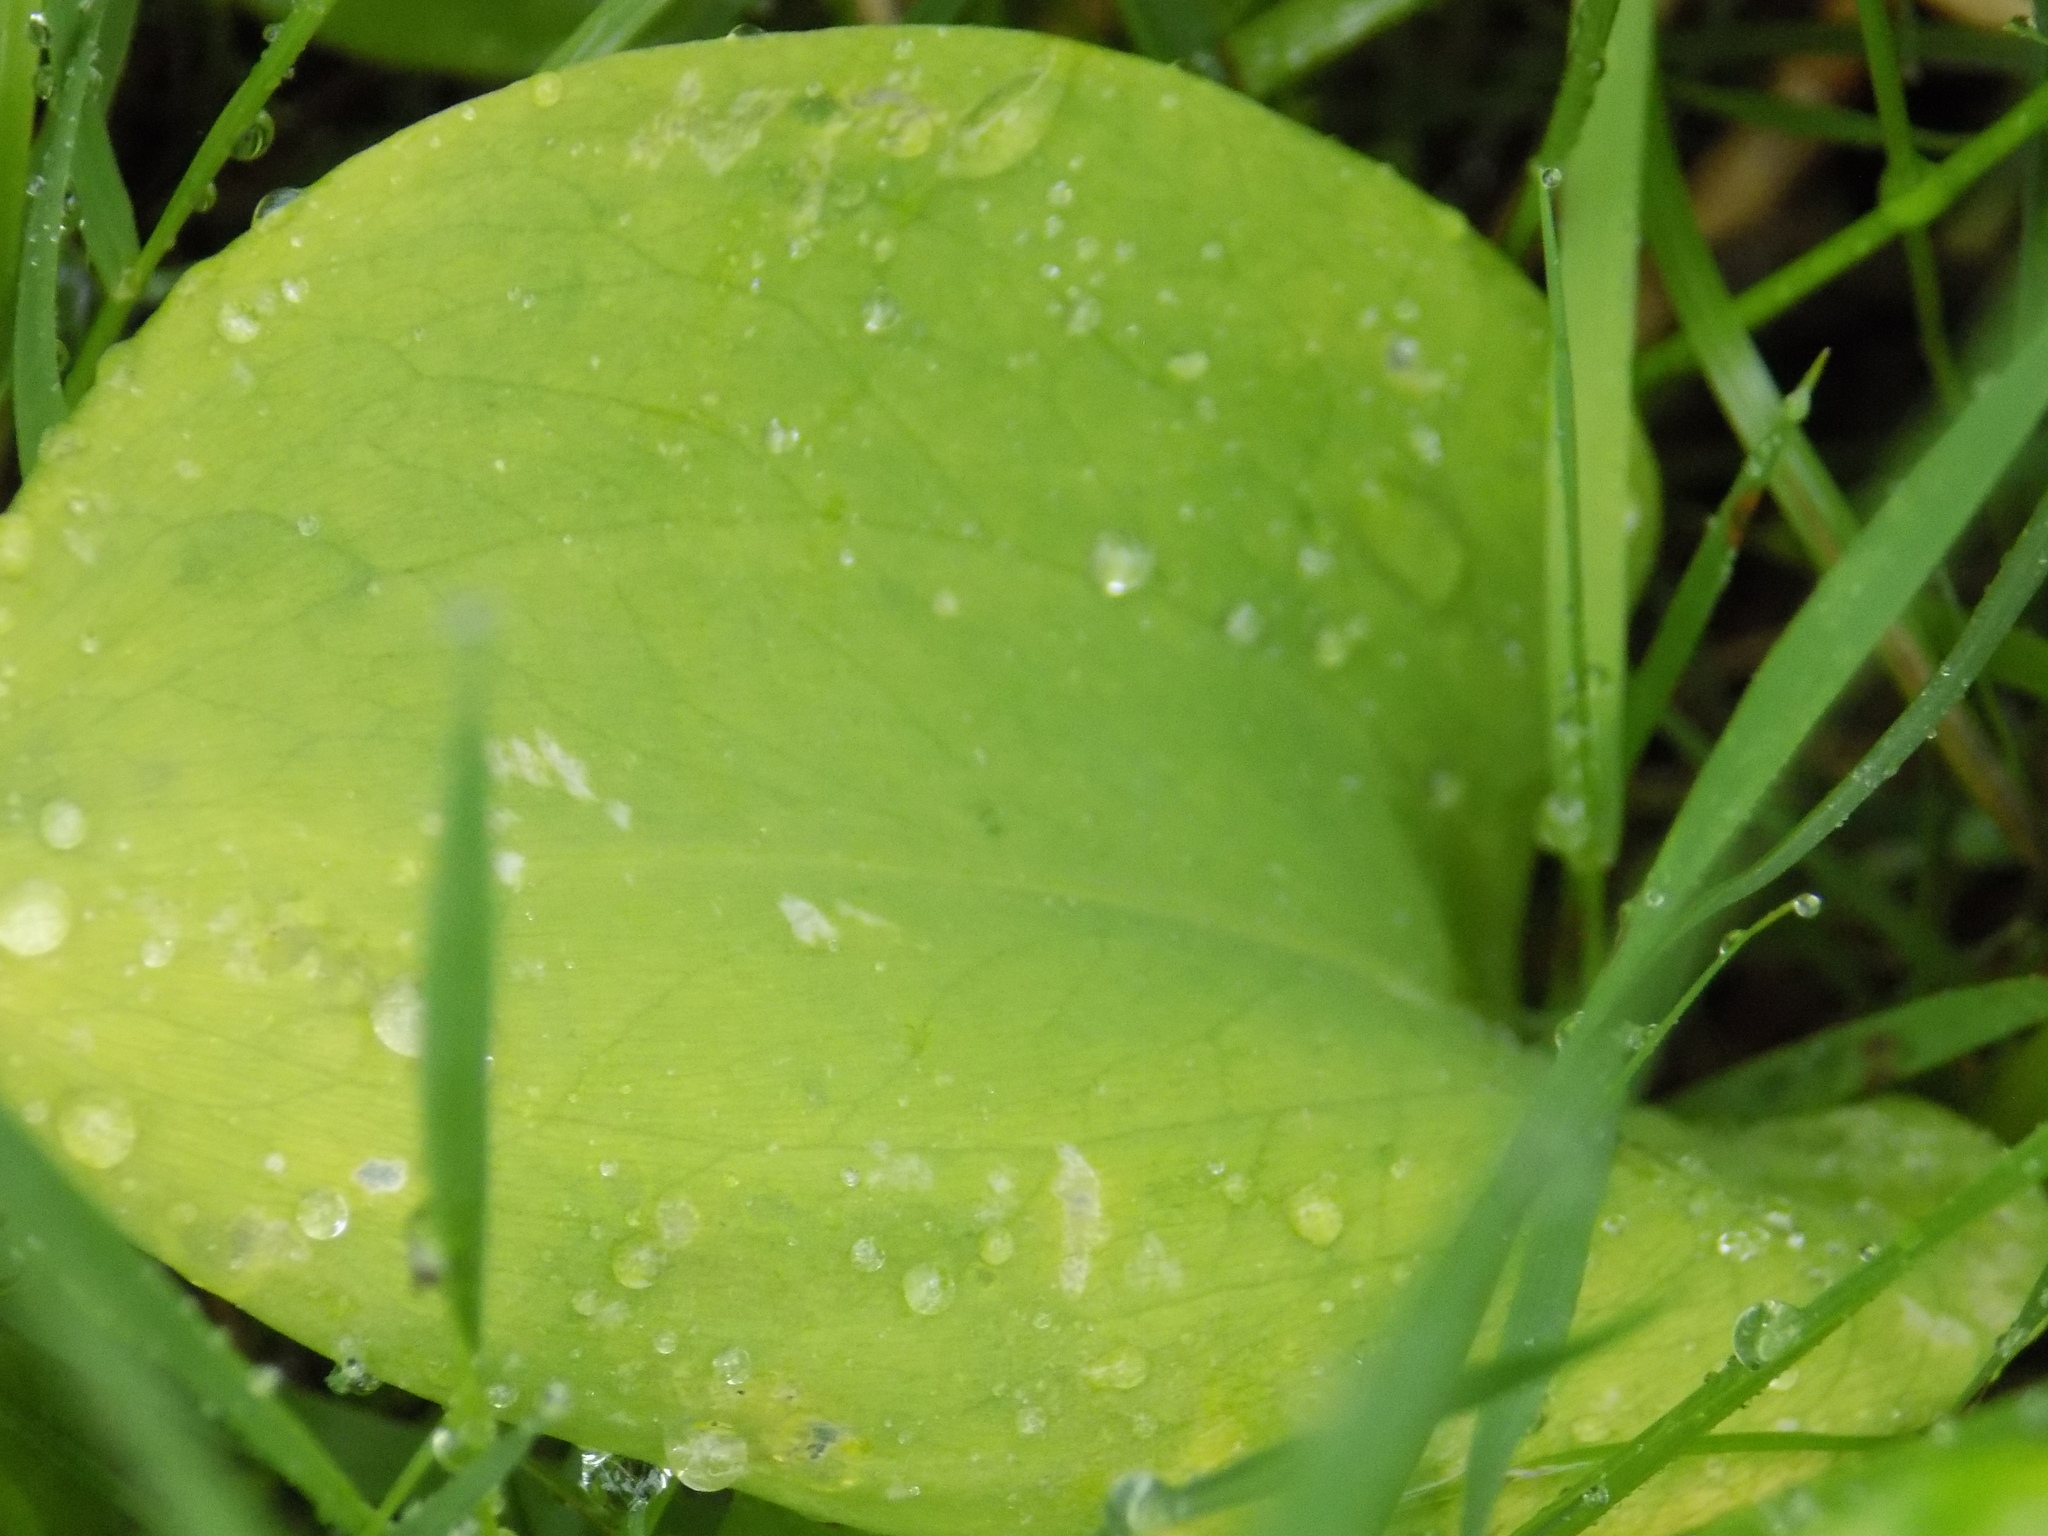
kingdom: Plantae
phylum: Tracheophyta
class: Liliopsida
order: Liliales
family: Liliaceae
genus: Erythronium
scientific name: Erythronium sibiricum
